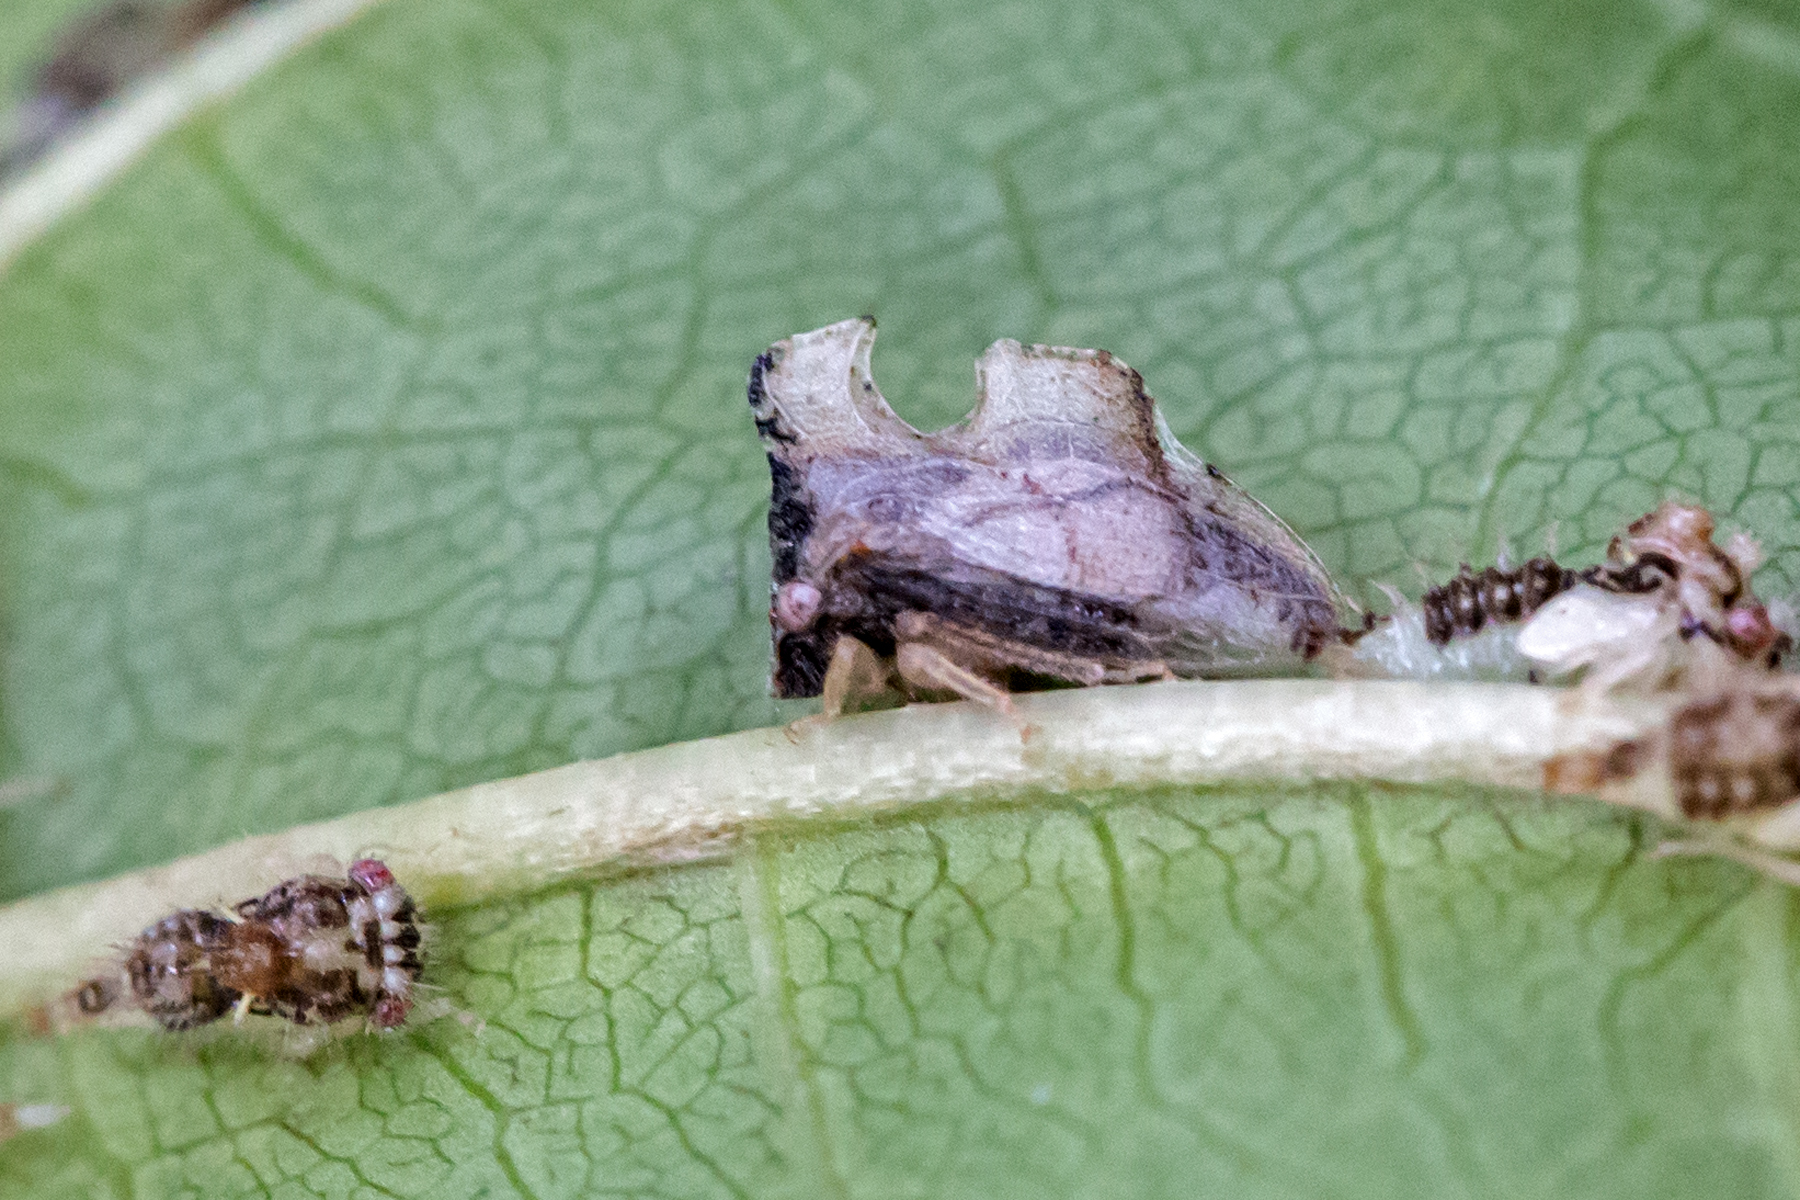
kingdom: Animalia
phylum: Arthropoda
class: Insecta
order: Hemiptera
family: Membracidae
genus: Entylia
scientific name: Entylia carinata
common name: Keeled treehopper
